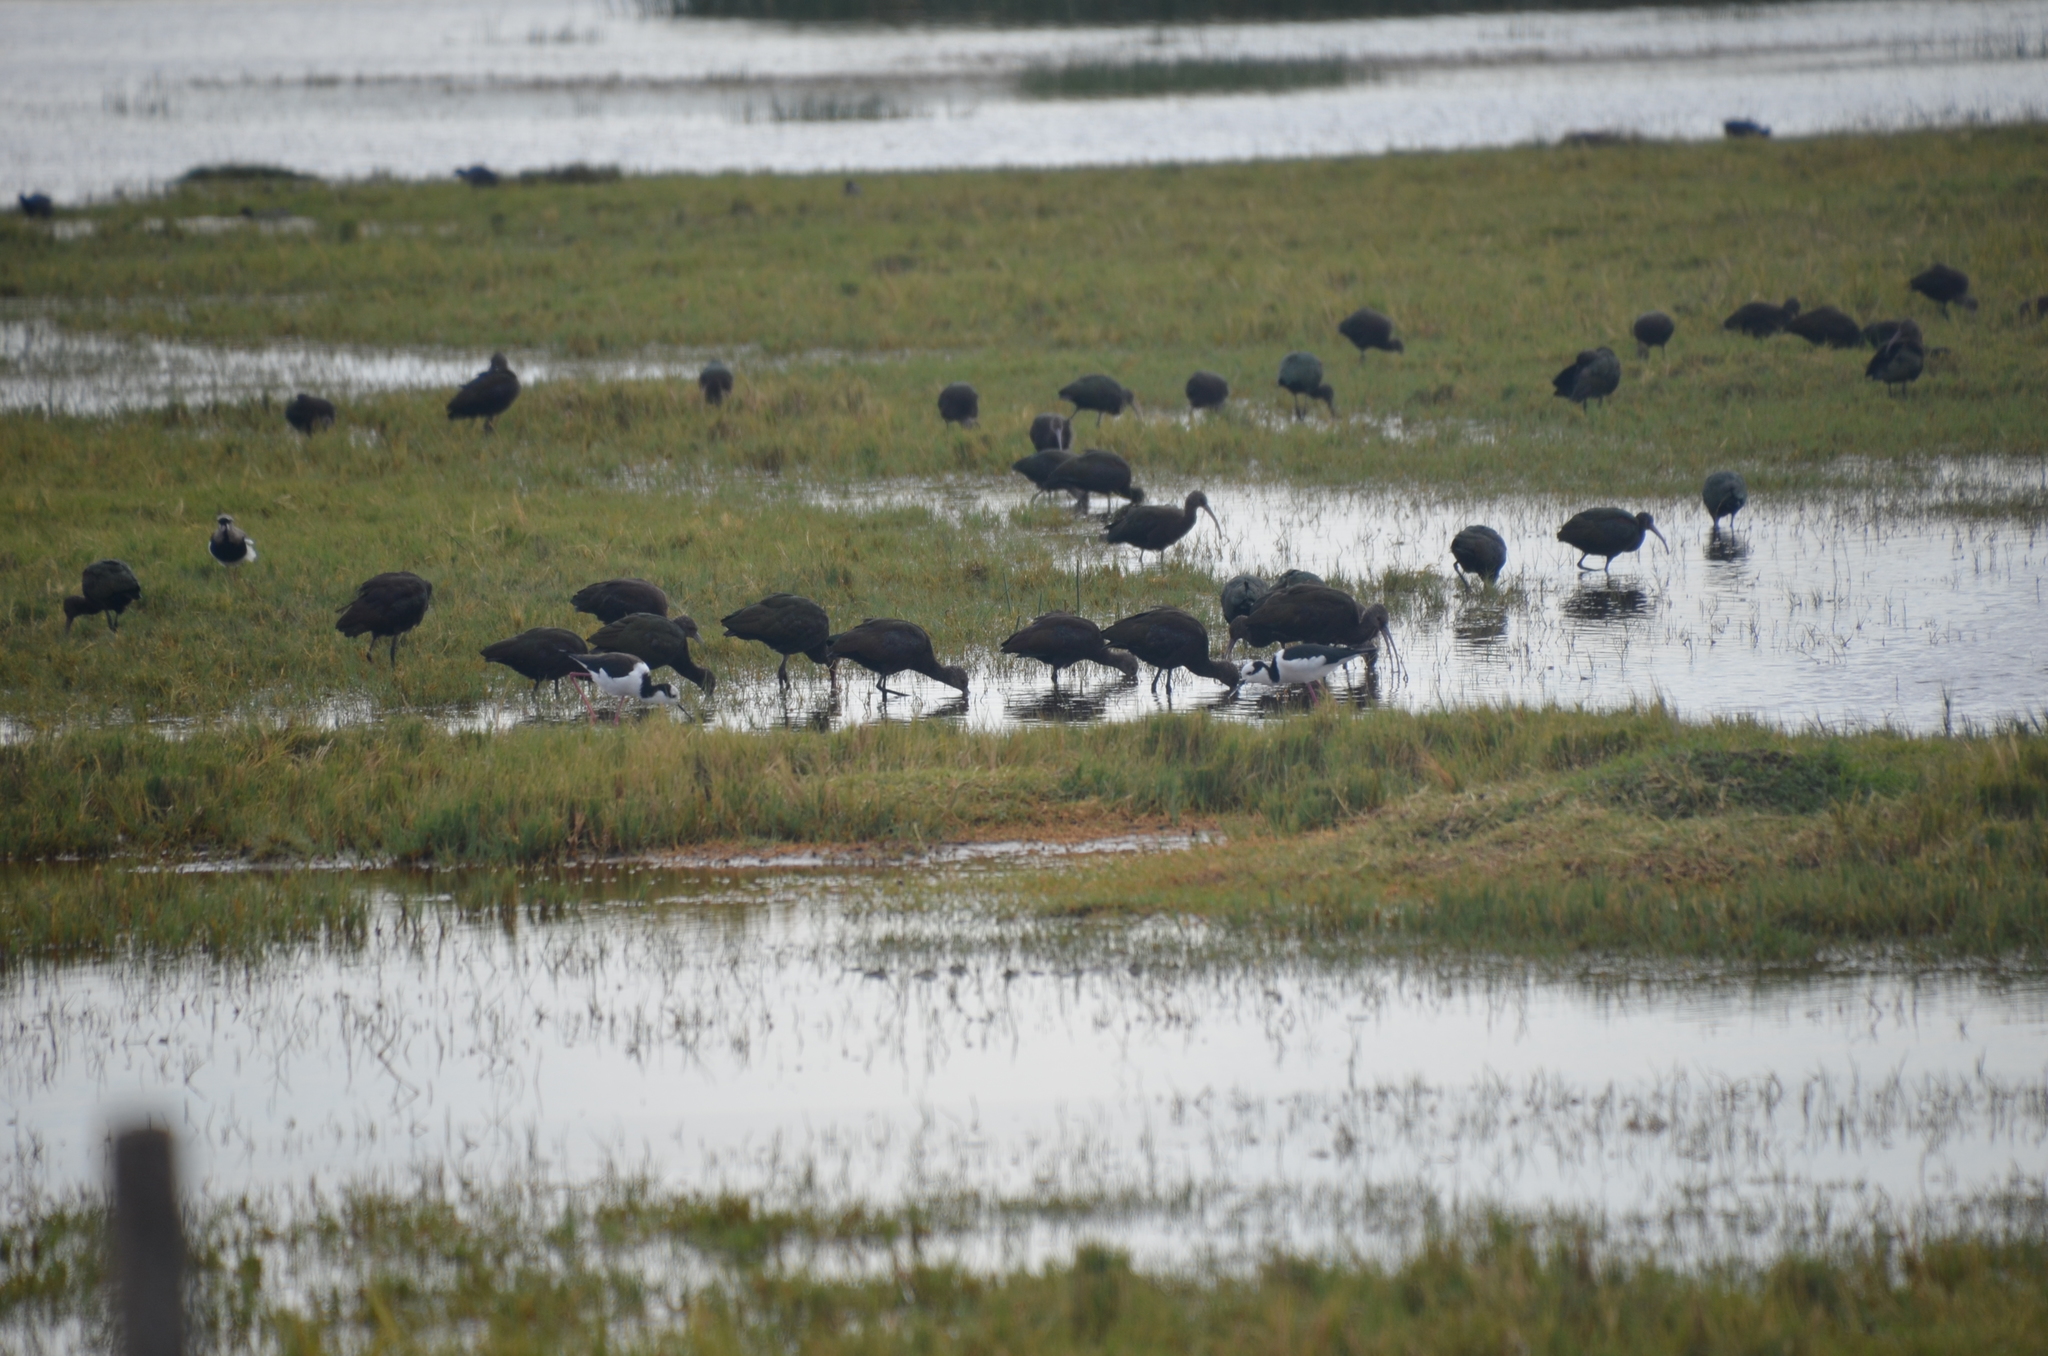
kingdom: Animalia
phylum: Chordata
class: Aves
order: Pelecaniformes
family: Threskiornithidae
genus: Plegadis
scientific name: Plegadis chihi
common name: White-faced ibis
